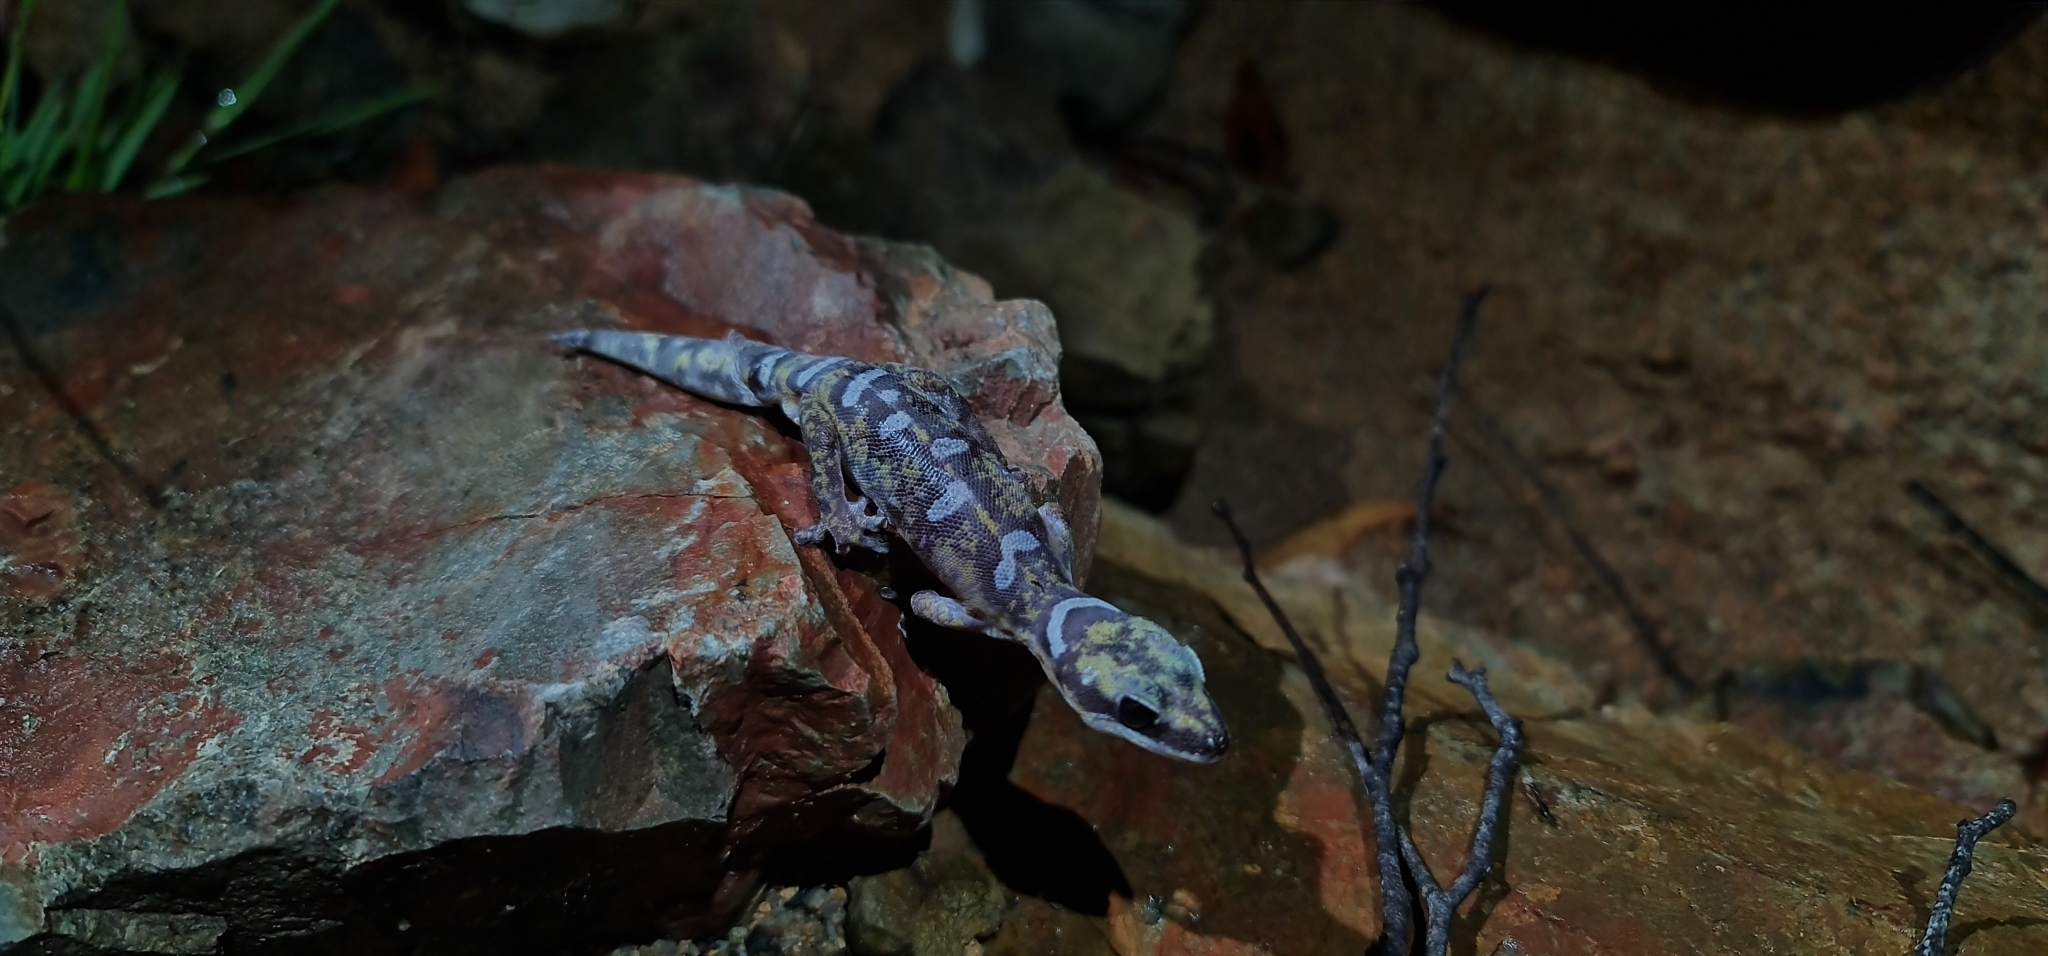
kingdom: Animalia
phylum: Chordata
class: Squamata
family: Diplodactylidae
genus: Oedura
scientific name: Oedura monilis
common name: Blotched gecko
